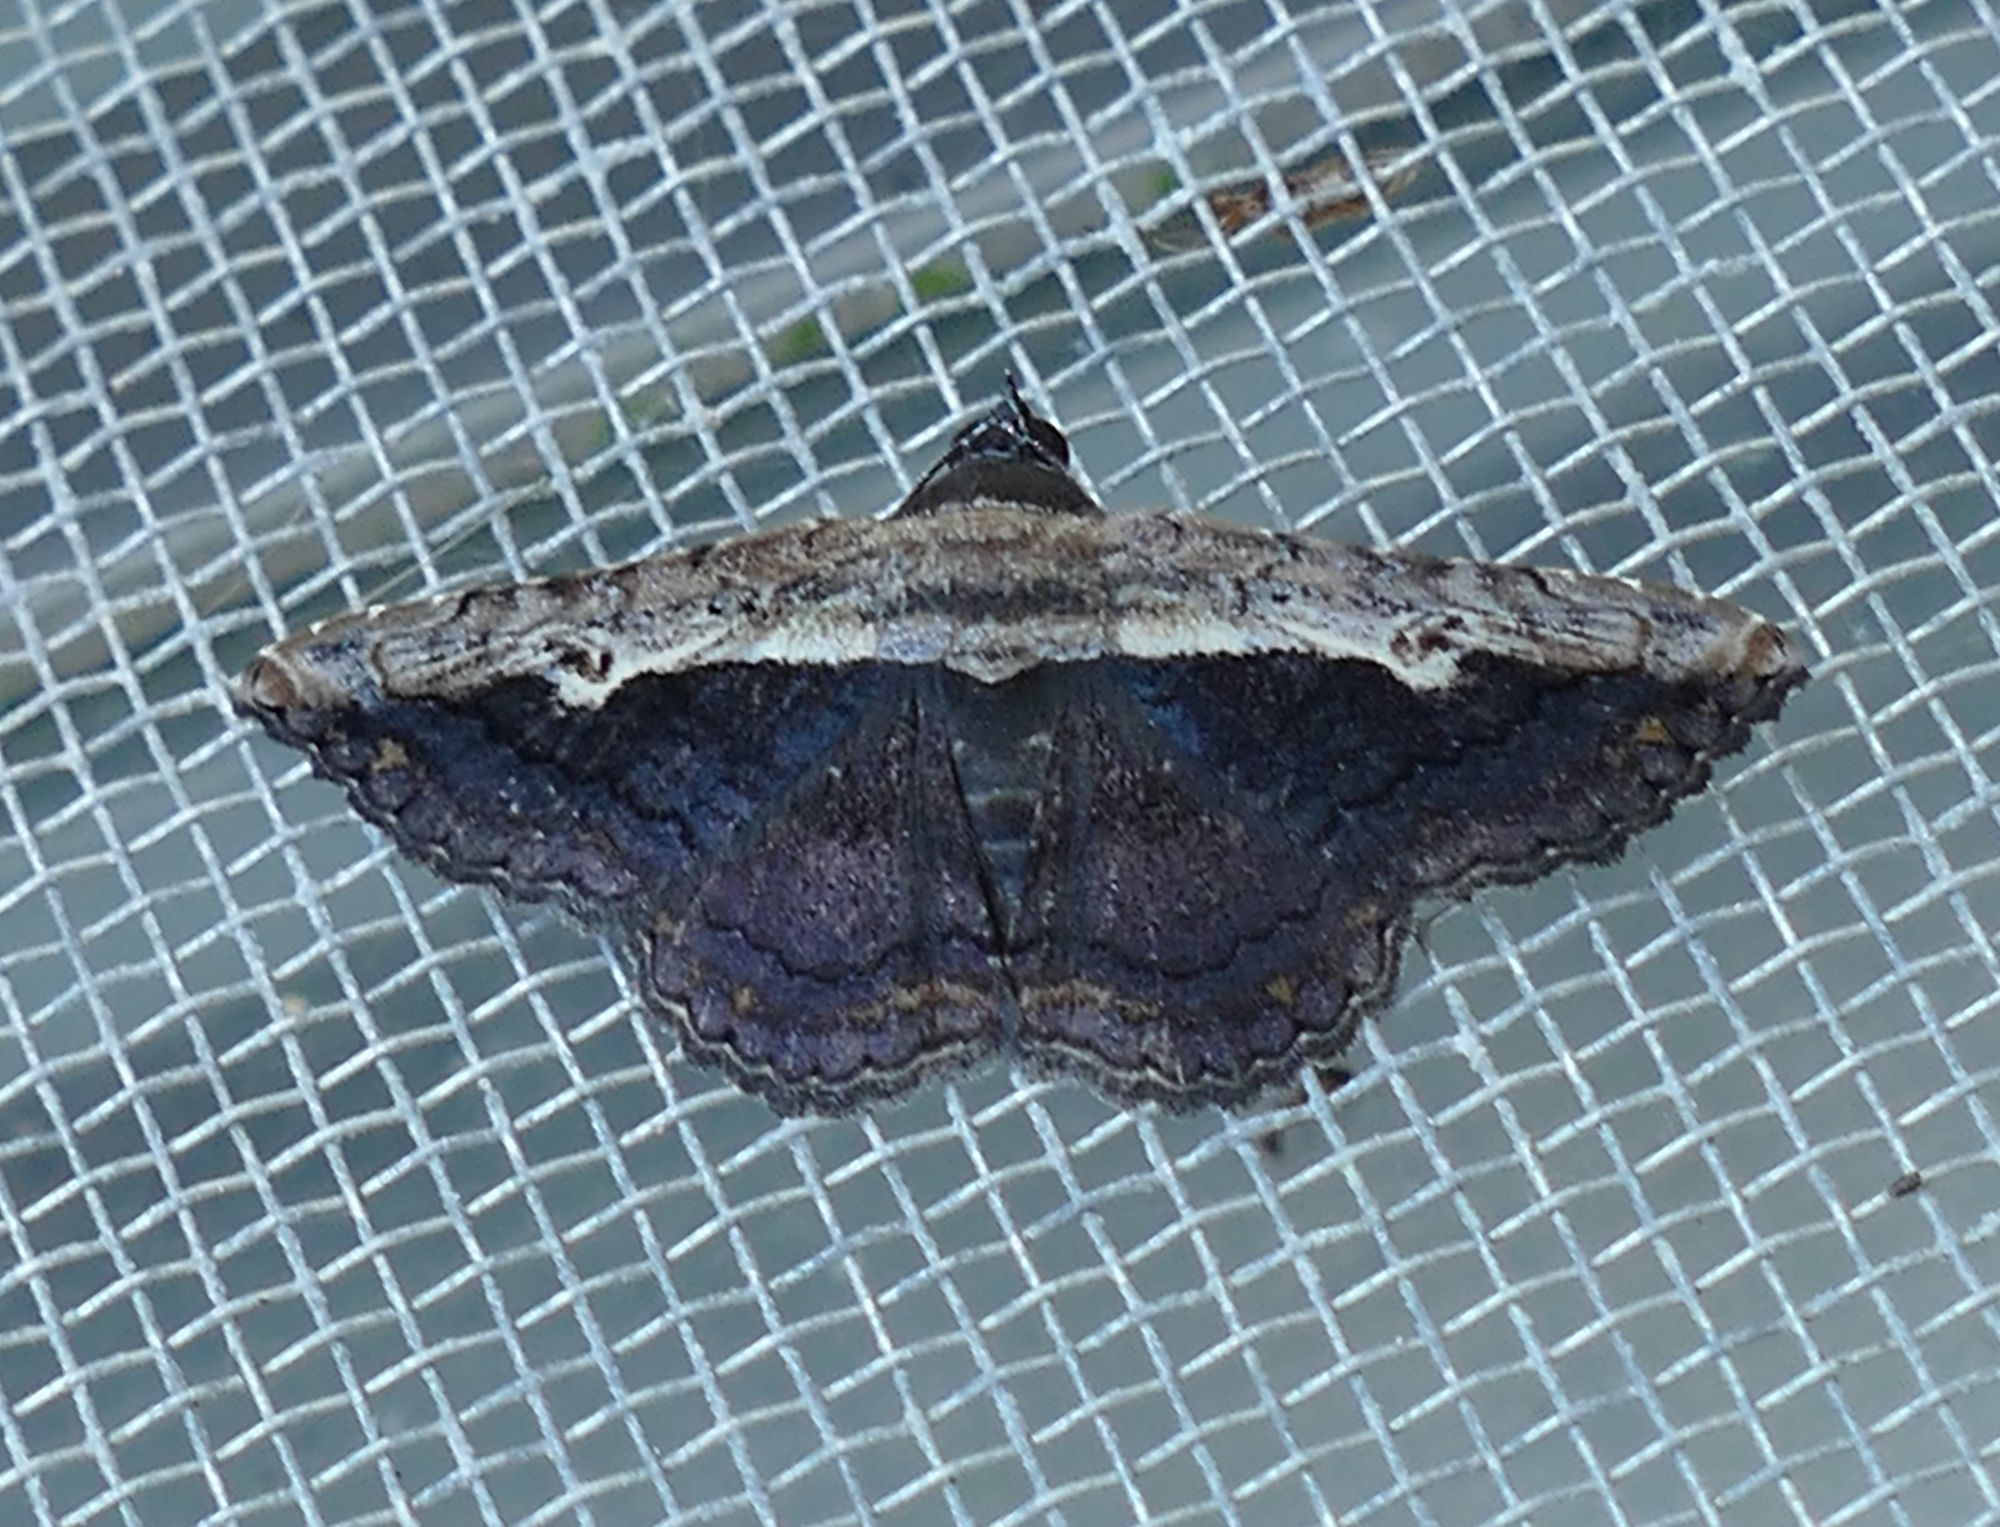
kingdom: Animalia
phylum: Arthropoda
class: Insecta
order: Lepidoptera
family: Erebidae
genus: Selenisa
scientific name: Selenisa sueroides
